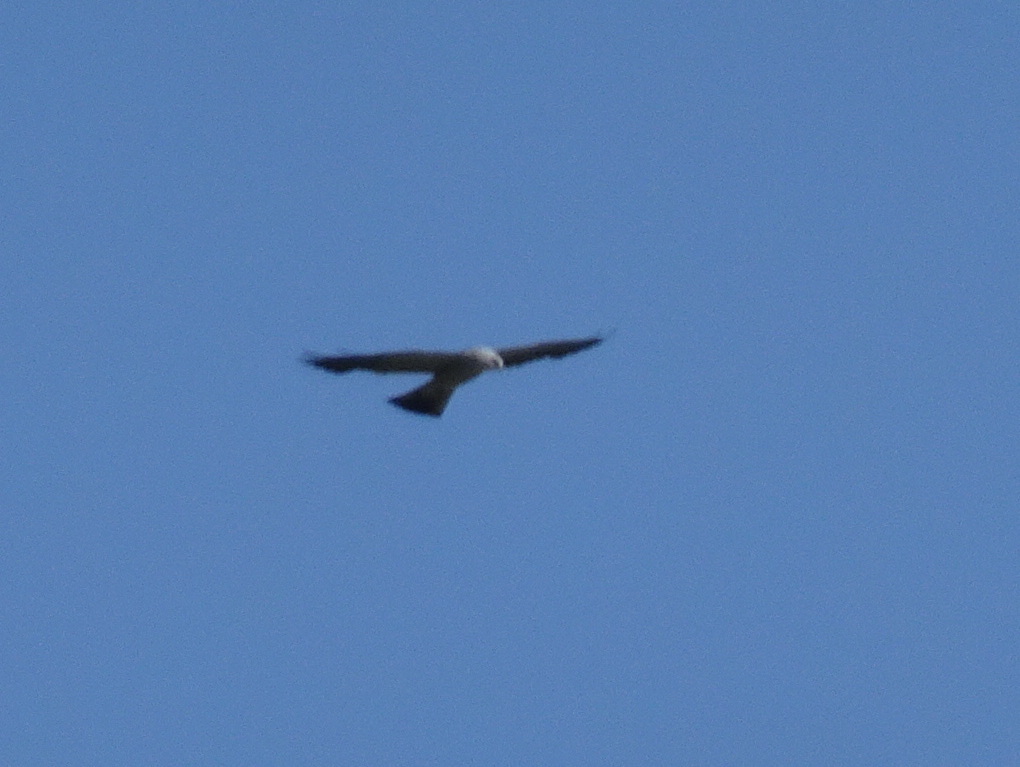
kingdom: Animalia
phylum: Chordata
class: Aves
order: Accipitriformes
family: Accipitridae
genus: Ictinia
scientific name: Ictinia mississippiensis
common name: Mississippi kite
